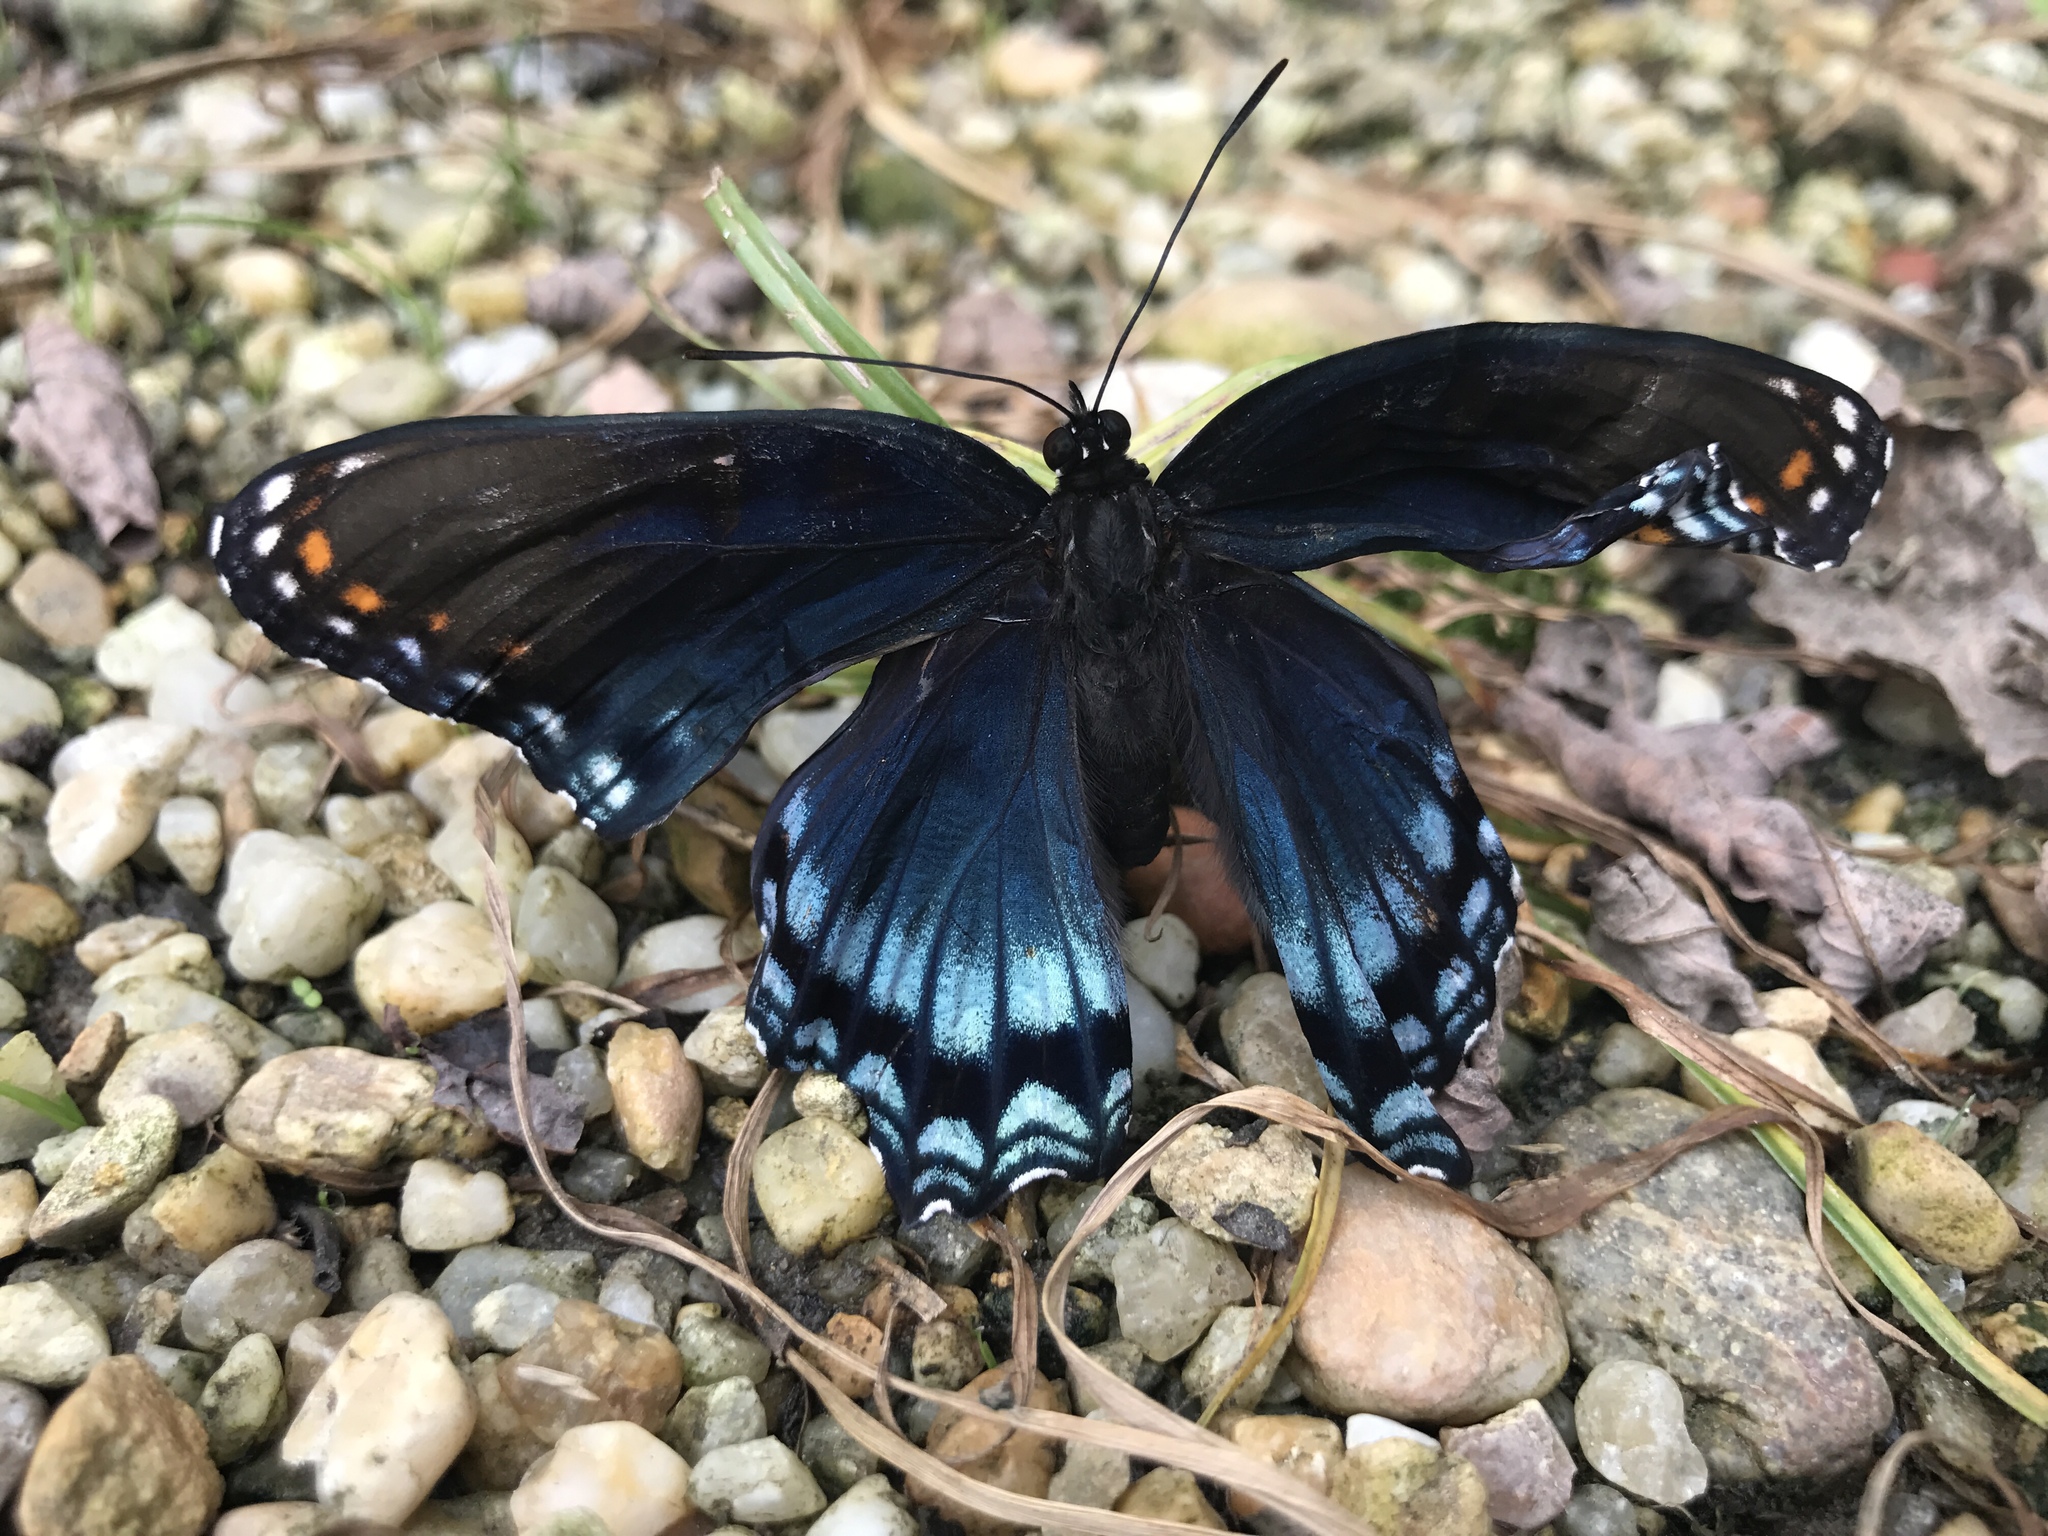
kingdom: Animalia
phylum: Arthropoda
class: Insecta
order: Lepidoptera
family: Nymphalidae
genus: Limenitis
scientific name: Limenitis arthemis
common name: Red-spotted admiral
